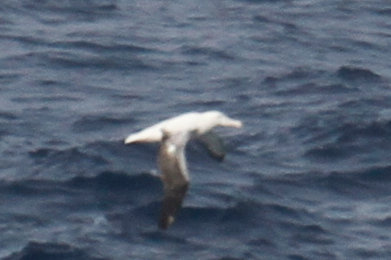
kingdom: Animalia
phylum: Chordata
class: Aves
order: Procellariiformes
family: Diomedeidae
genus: Diomedea
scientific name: Diomedea epomophora
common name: Southern royal albatross
